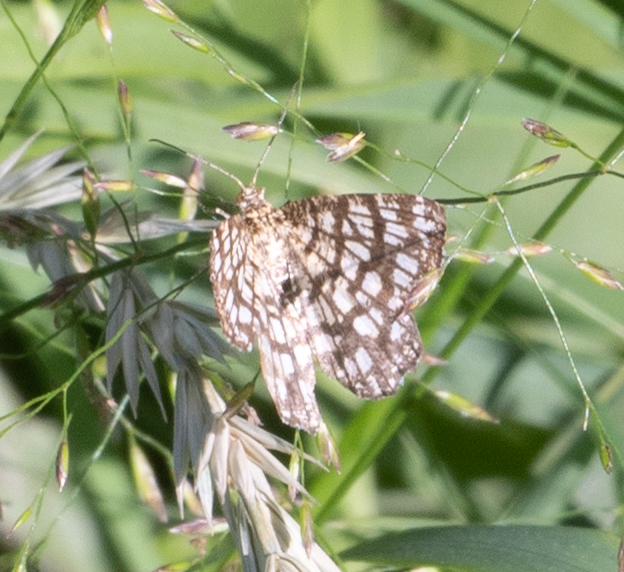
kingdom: Animalia
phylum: Arthropoda
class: Insecta
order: Lepidoptera
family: Geometridae
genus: Chiasmia
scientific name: Chiasmia clathrata
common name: Latticed heath
